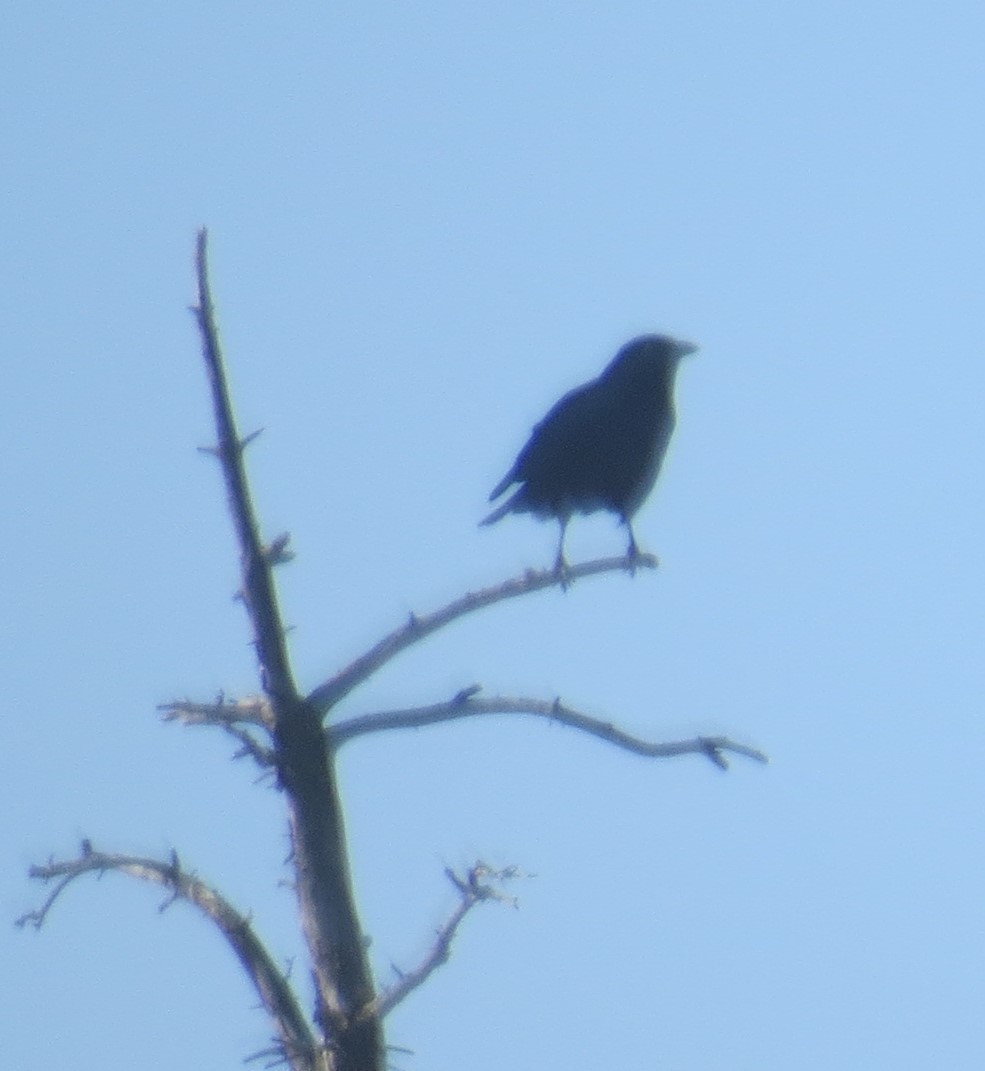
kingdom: Animalia
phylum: Chordata
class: Aves
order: Passeriformes
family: Corvidae
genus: Corvus
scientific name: Corvus brachyrhynchos
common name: American crow
